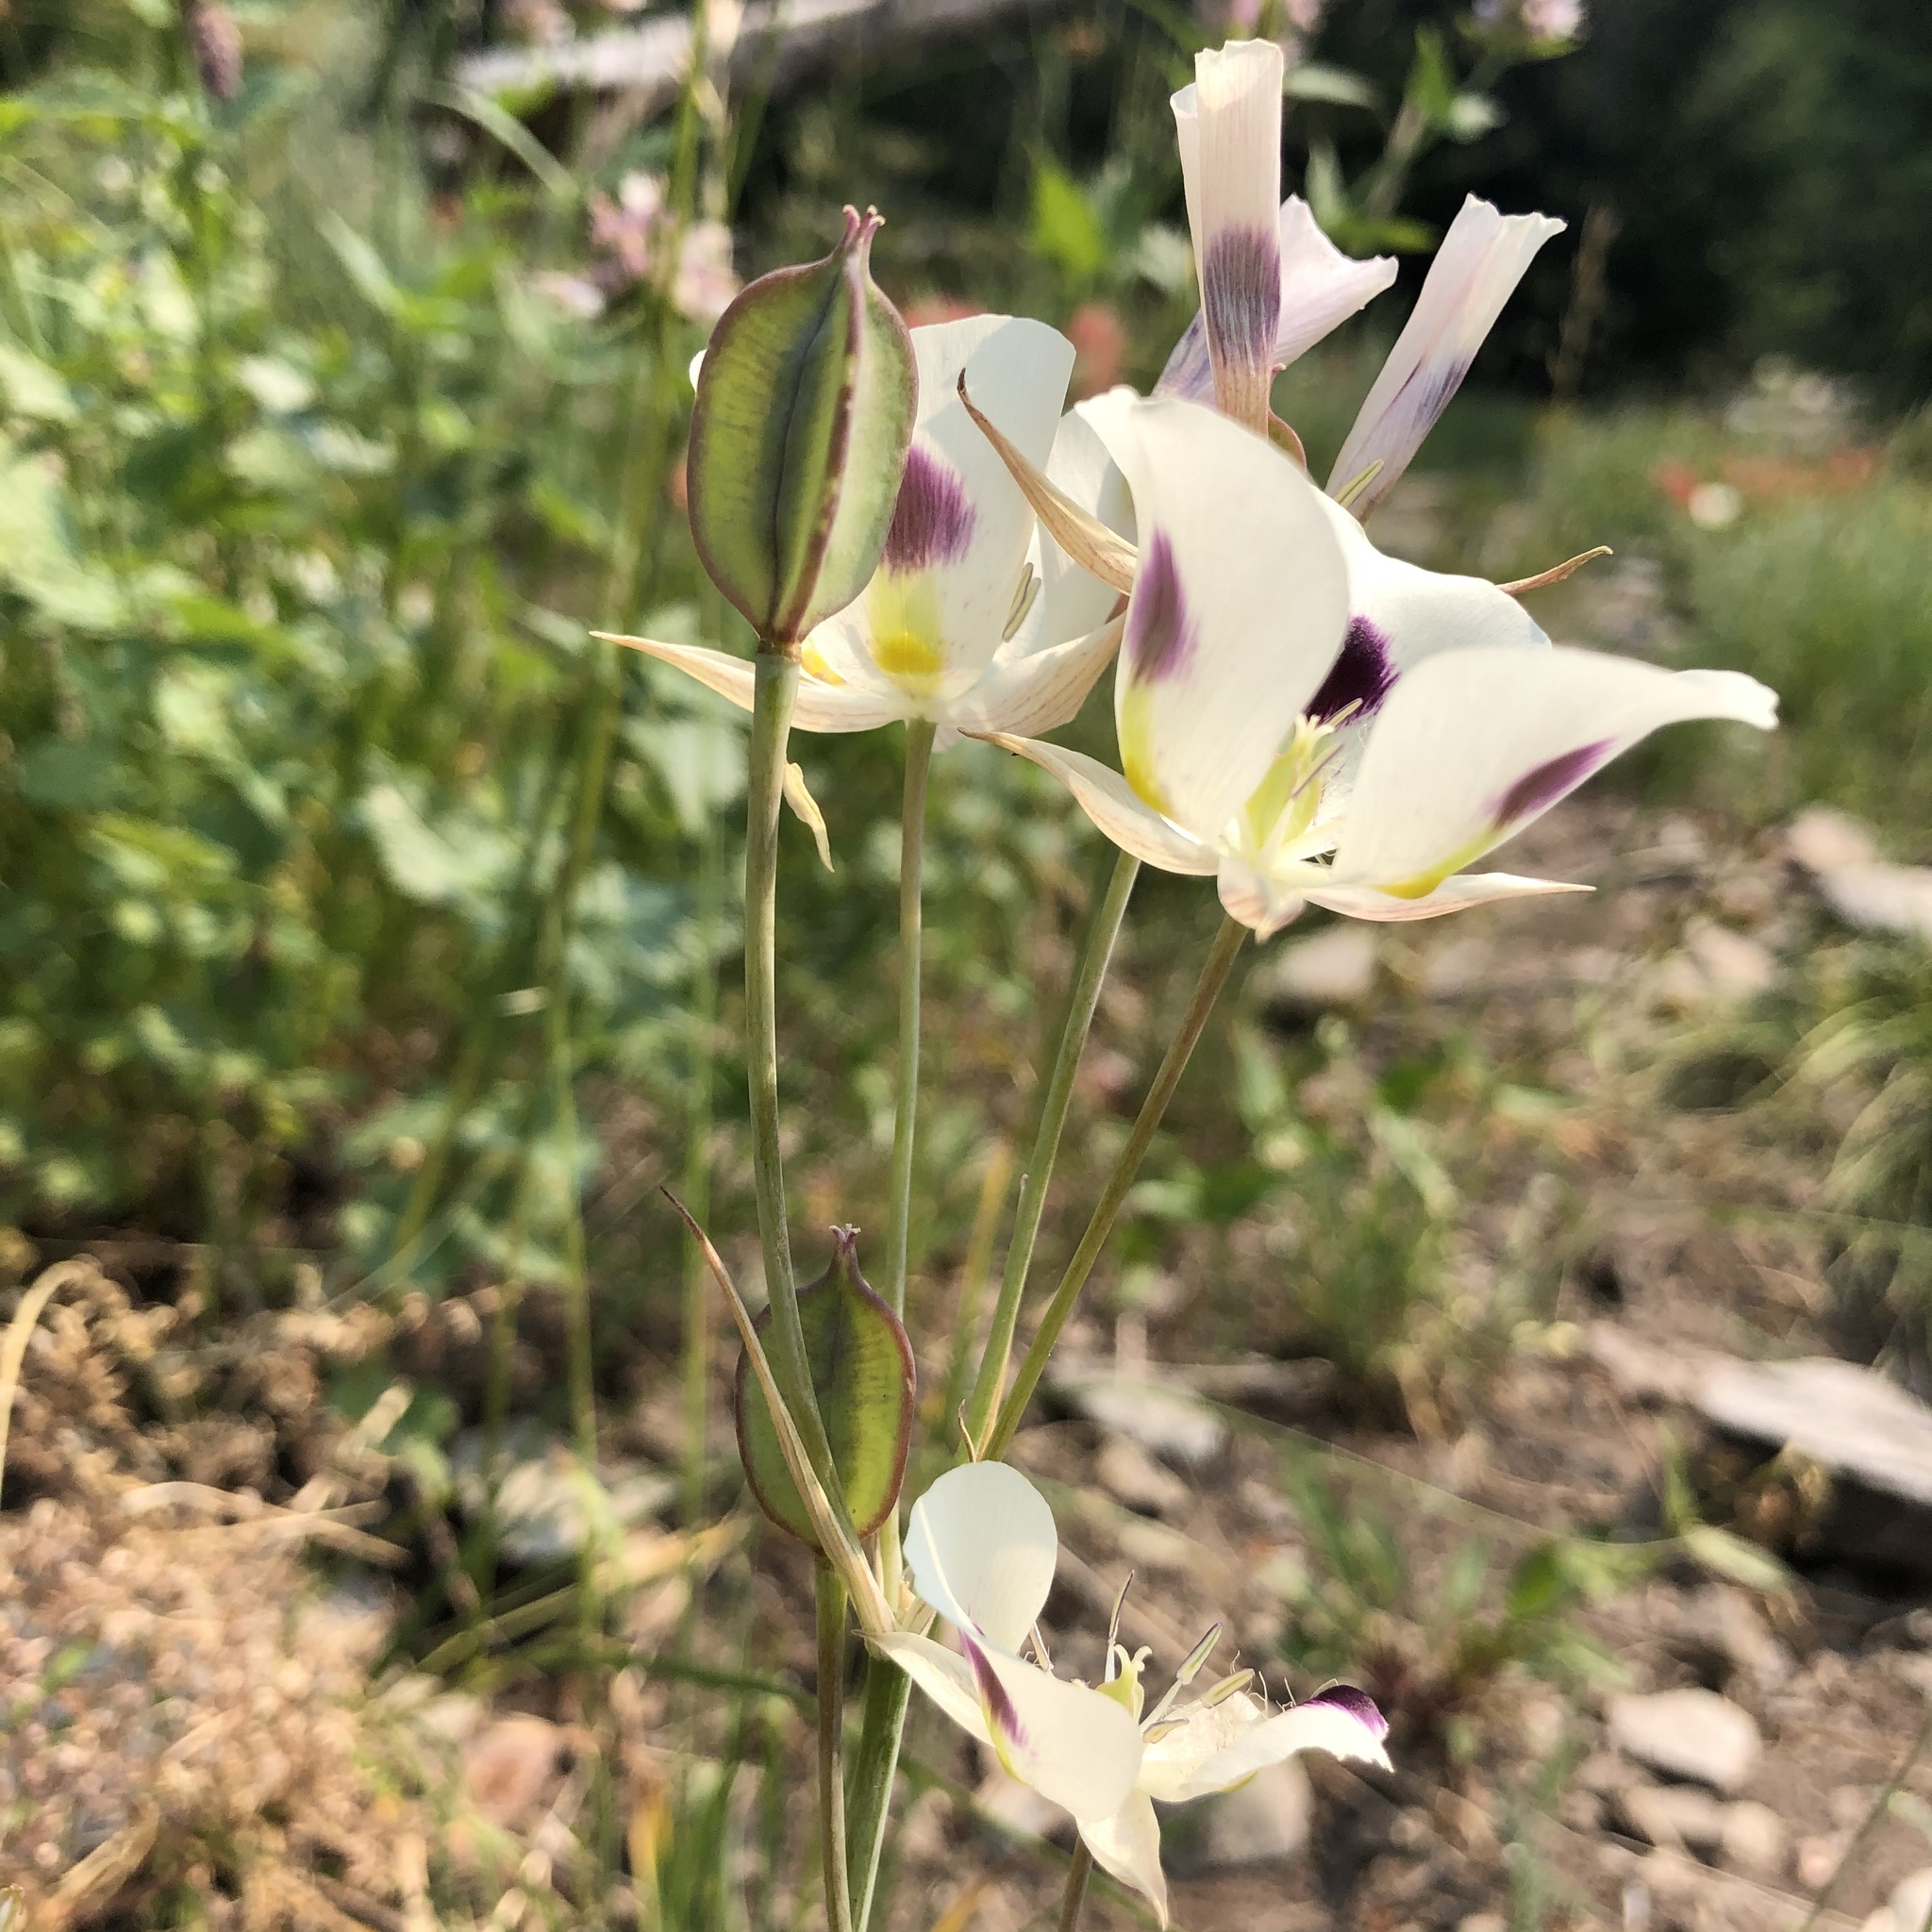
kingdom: Plantae
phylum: Tracheophyta
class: Liliopsida
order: Liliales
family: Liliaceae
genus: Calochortus
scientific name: Calochortus eurycarpus
